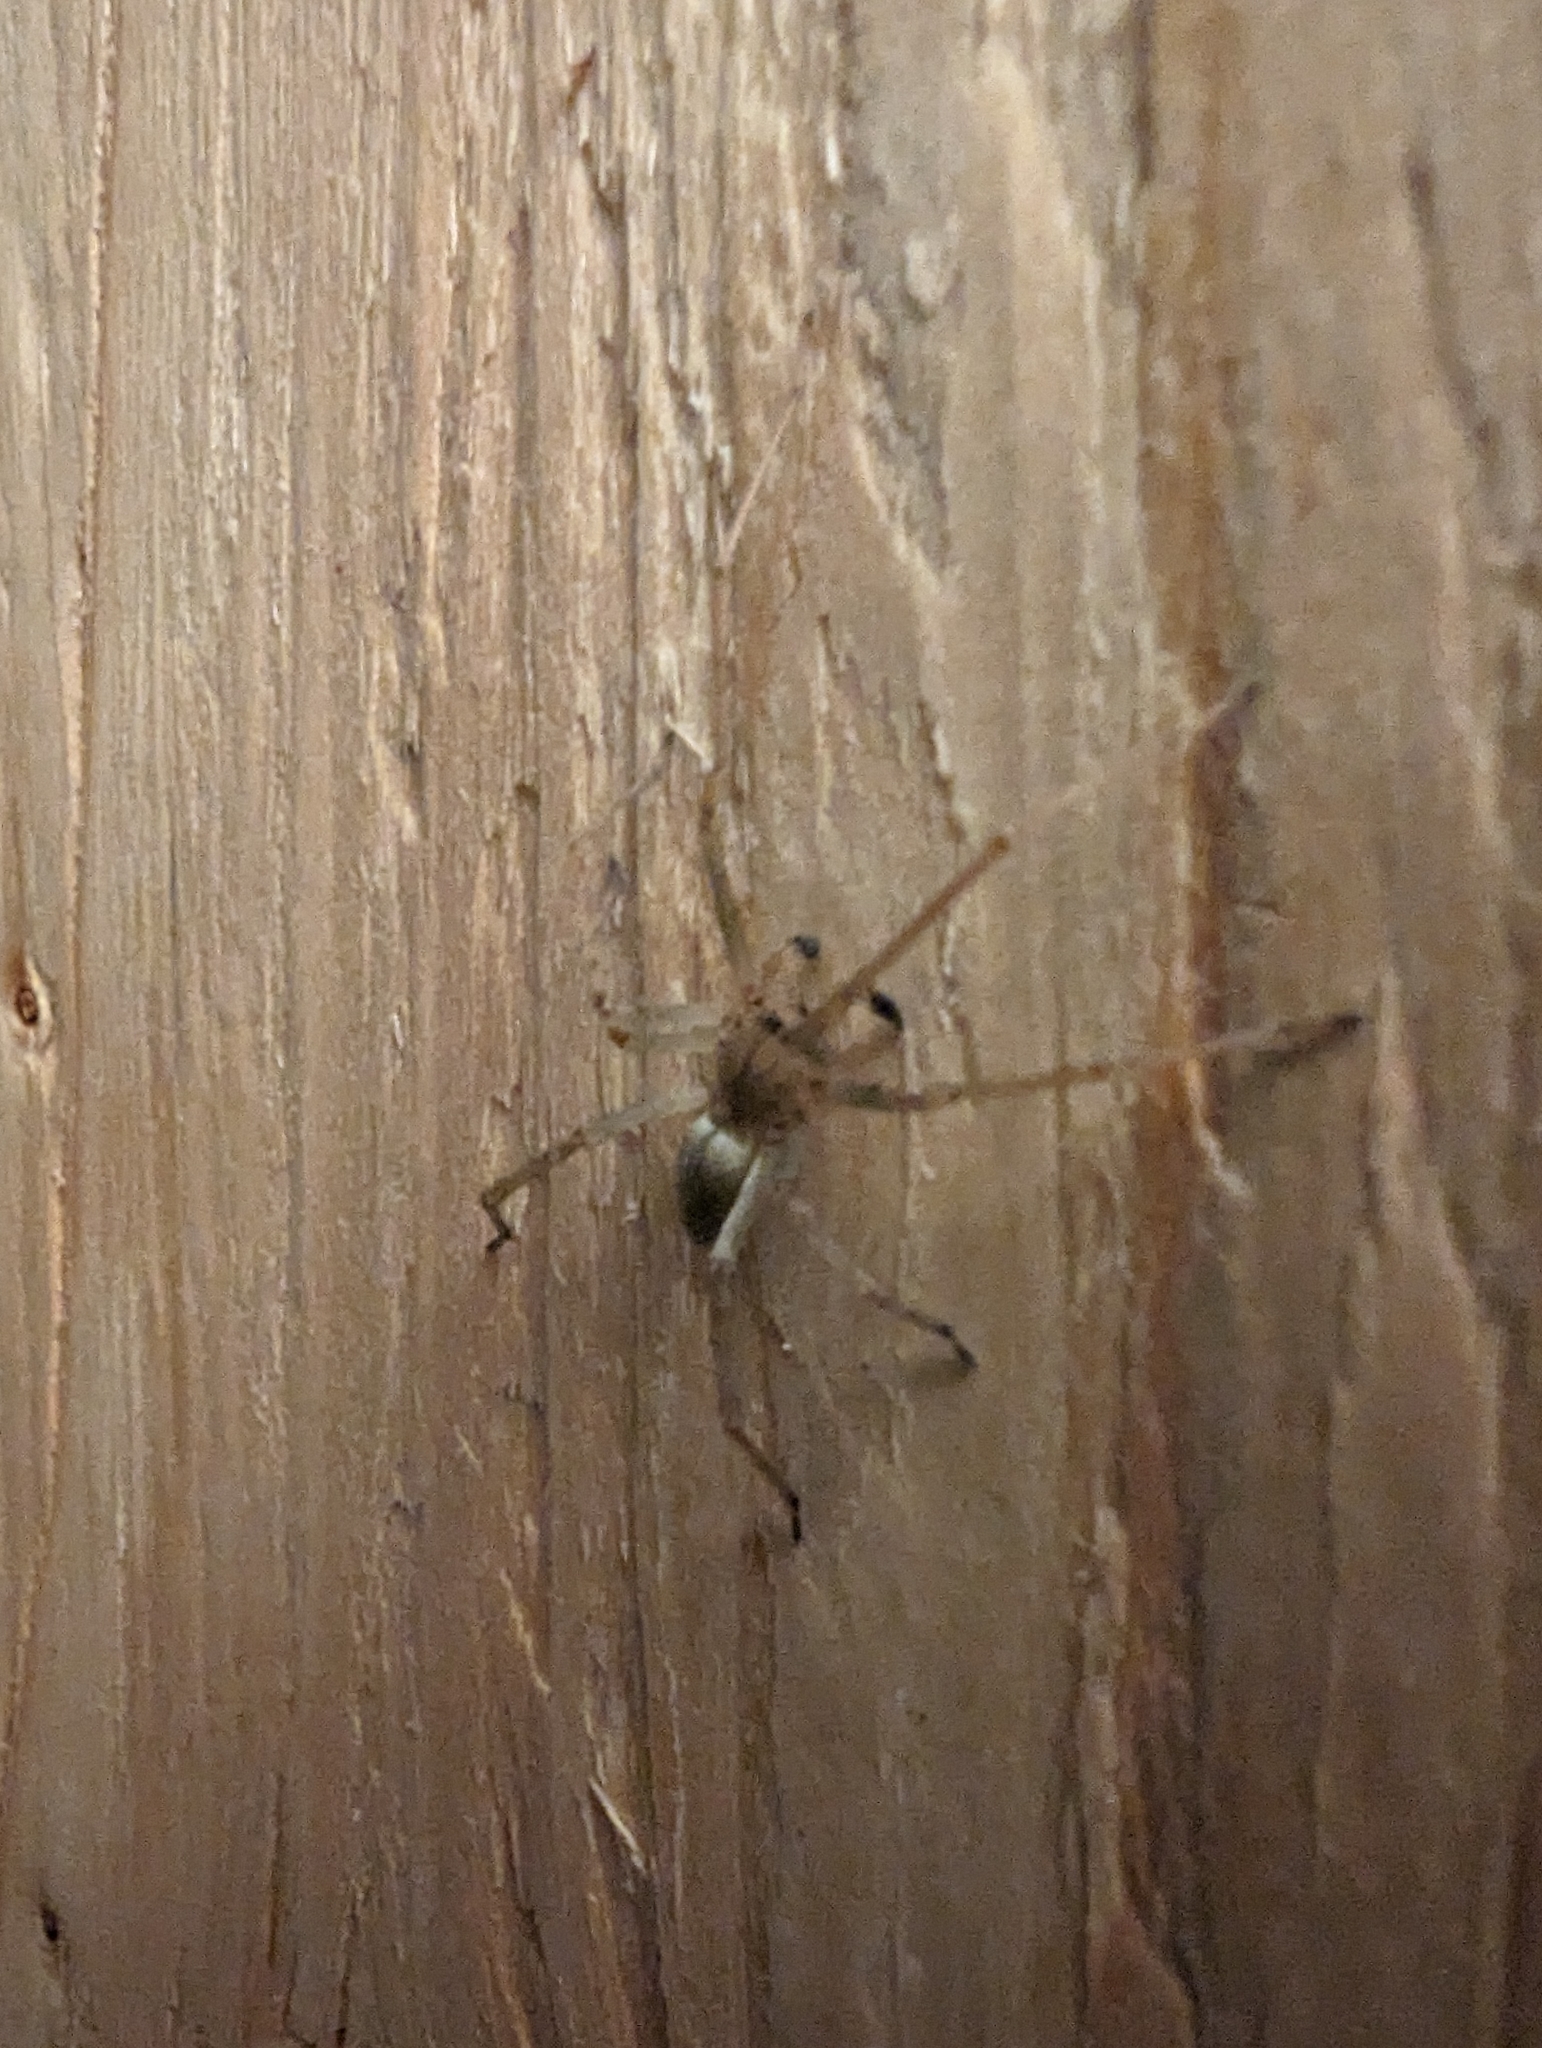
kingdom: Animalia
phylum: Arthropoda
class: Arachnida
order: Araneae
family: Cheiracanthiidae
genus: Cheiracanthium
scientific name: Cheiracanthium mildei
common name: Northern yellow sac spider
